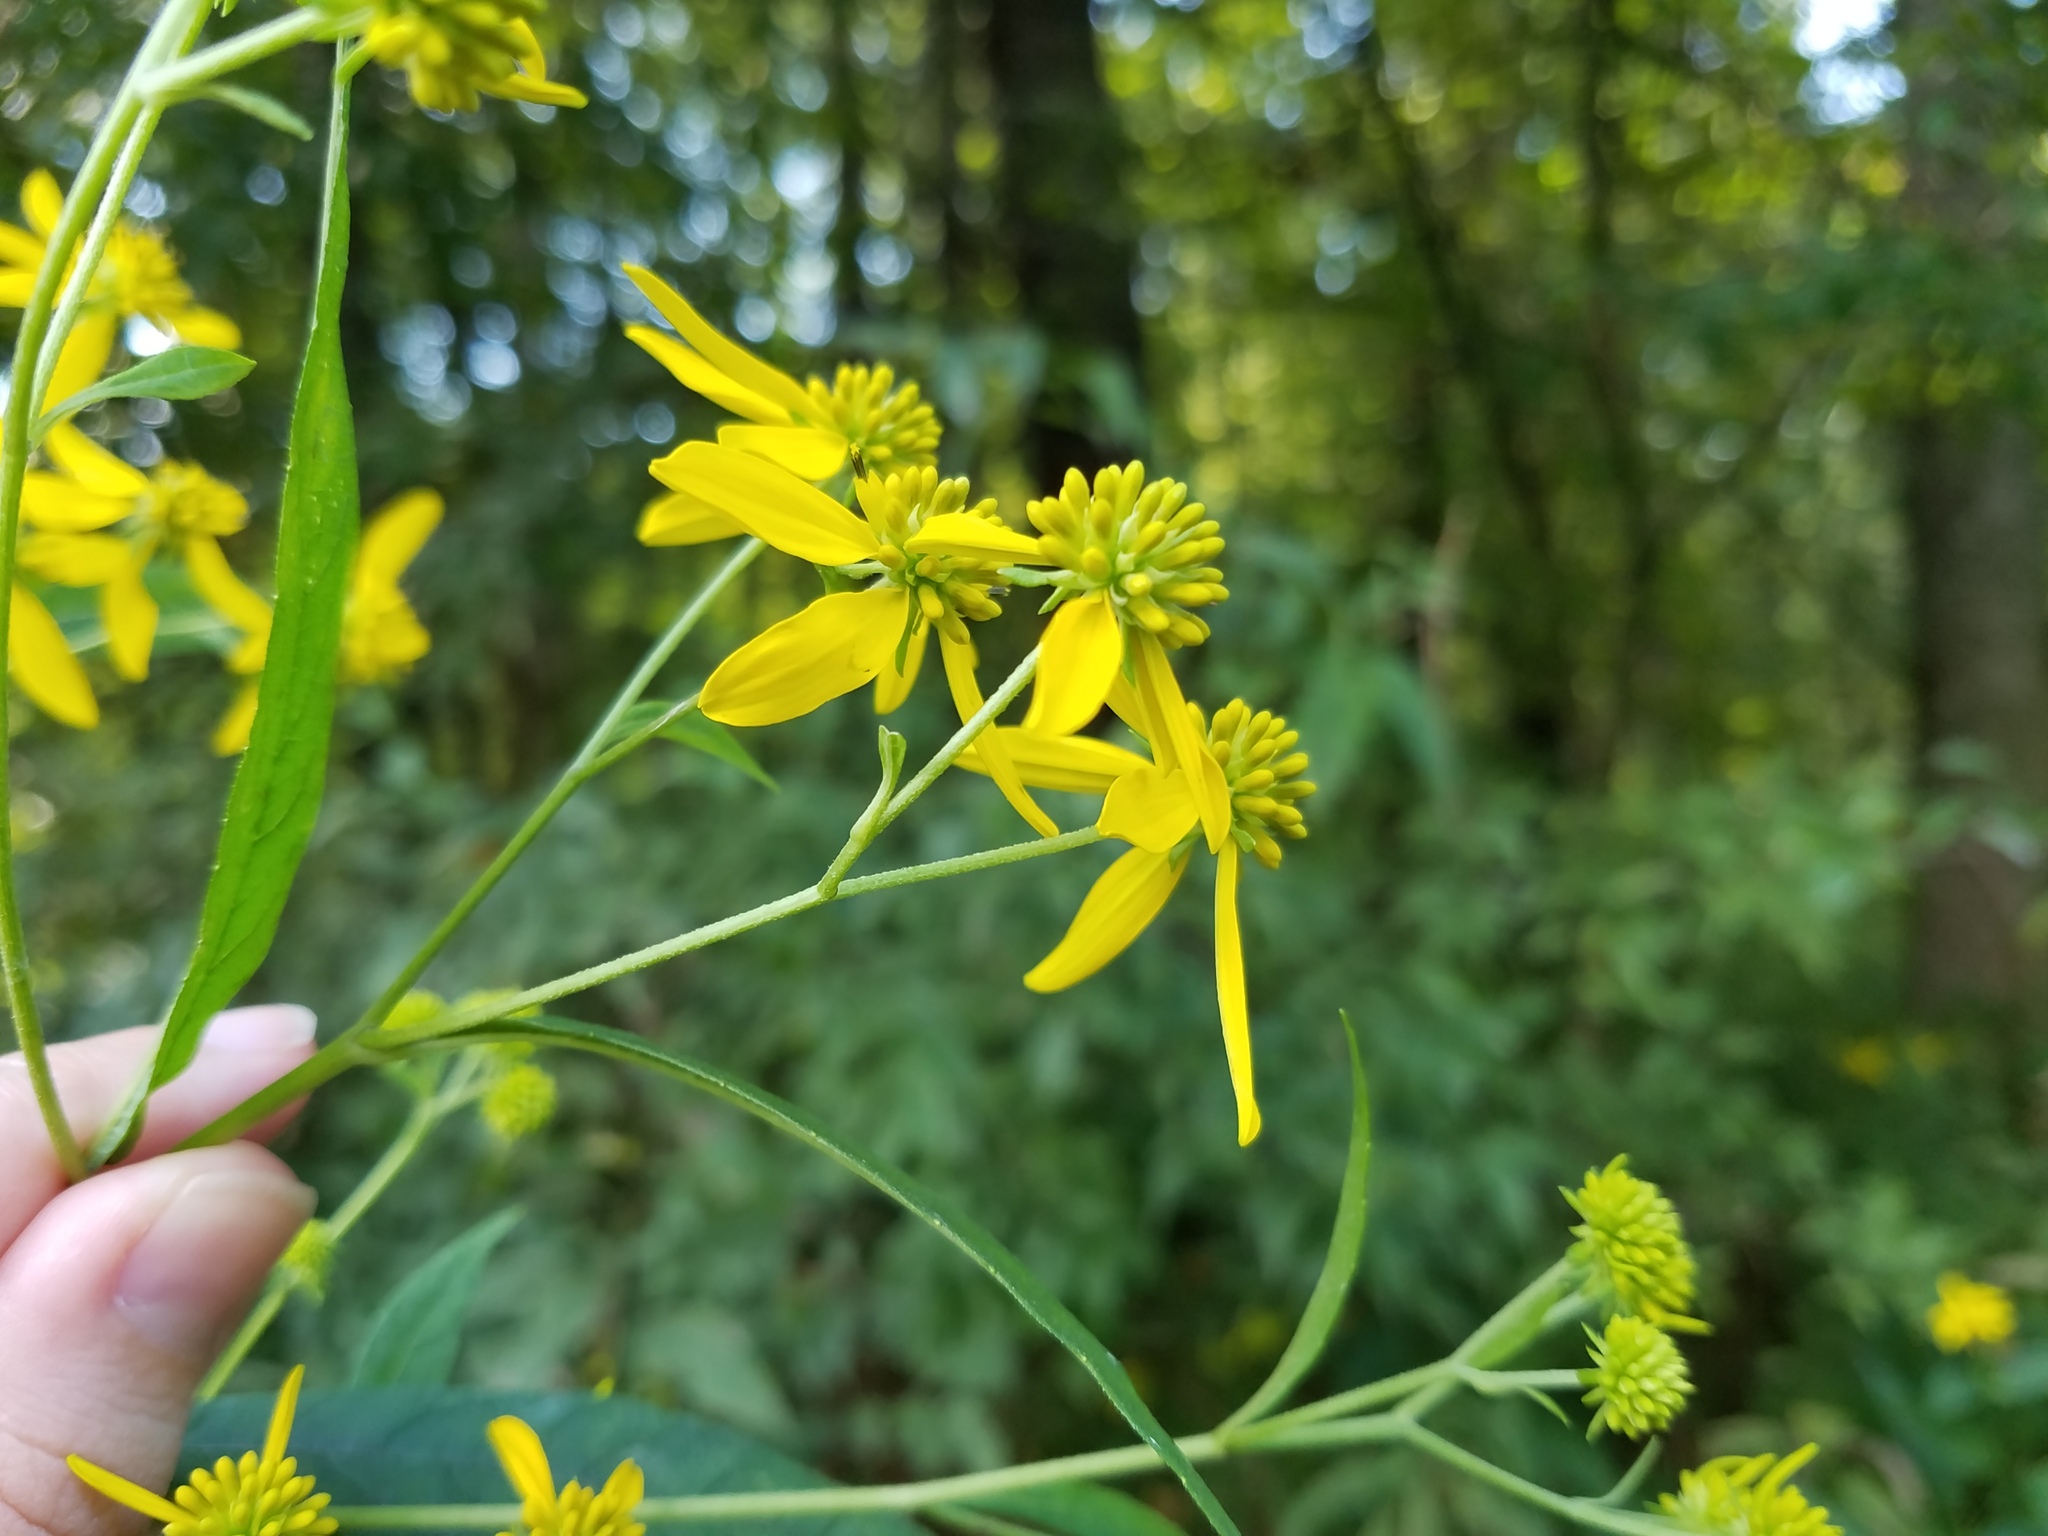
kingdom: Plantae
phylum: Tracheophyta
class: Magnoliopsida
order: Asterales
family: Asteraceae
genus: Verbesina
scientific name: Verbesina alternifolia
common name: Wingstem
